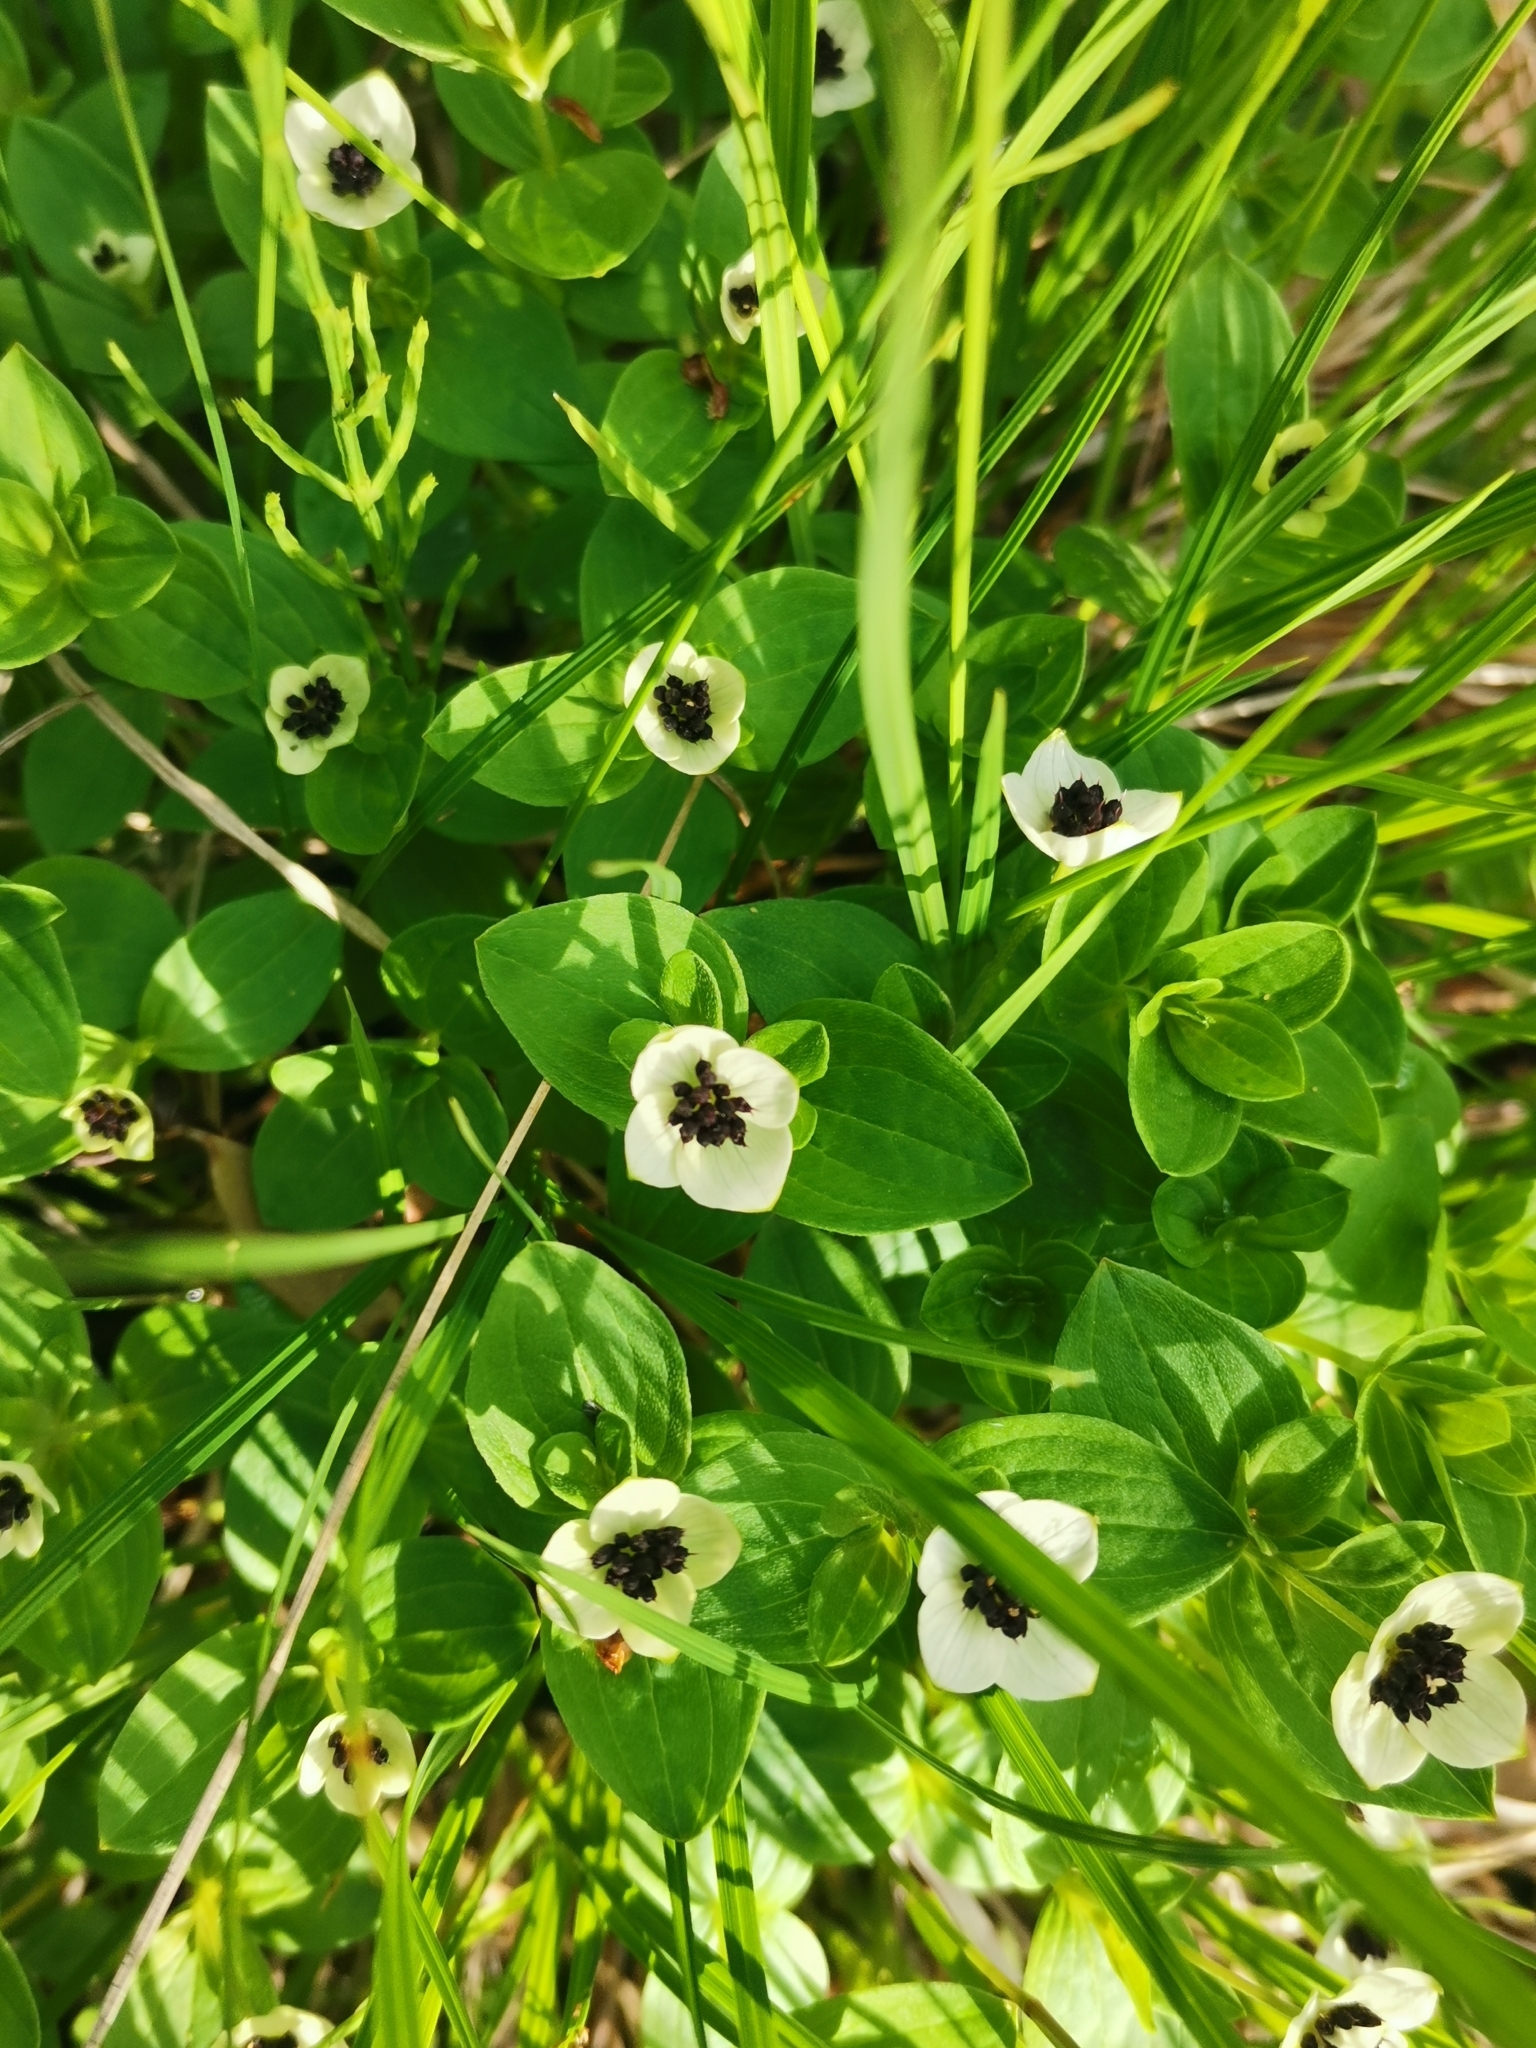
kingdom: Plantae
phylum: Tracheophyta
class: Magnoliopsida
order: Cornales
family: Cornaceae
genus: Cornus
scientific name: Cornus suecica
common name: Dwarf cornel
